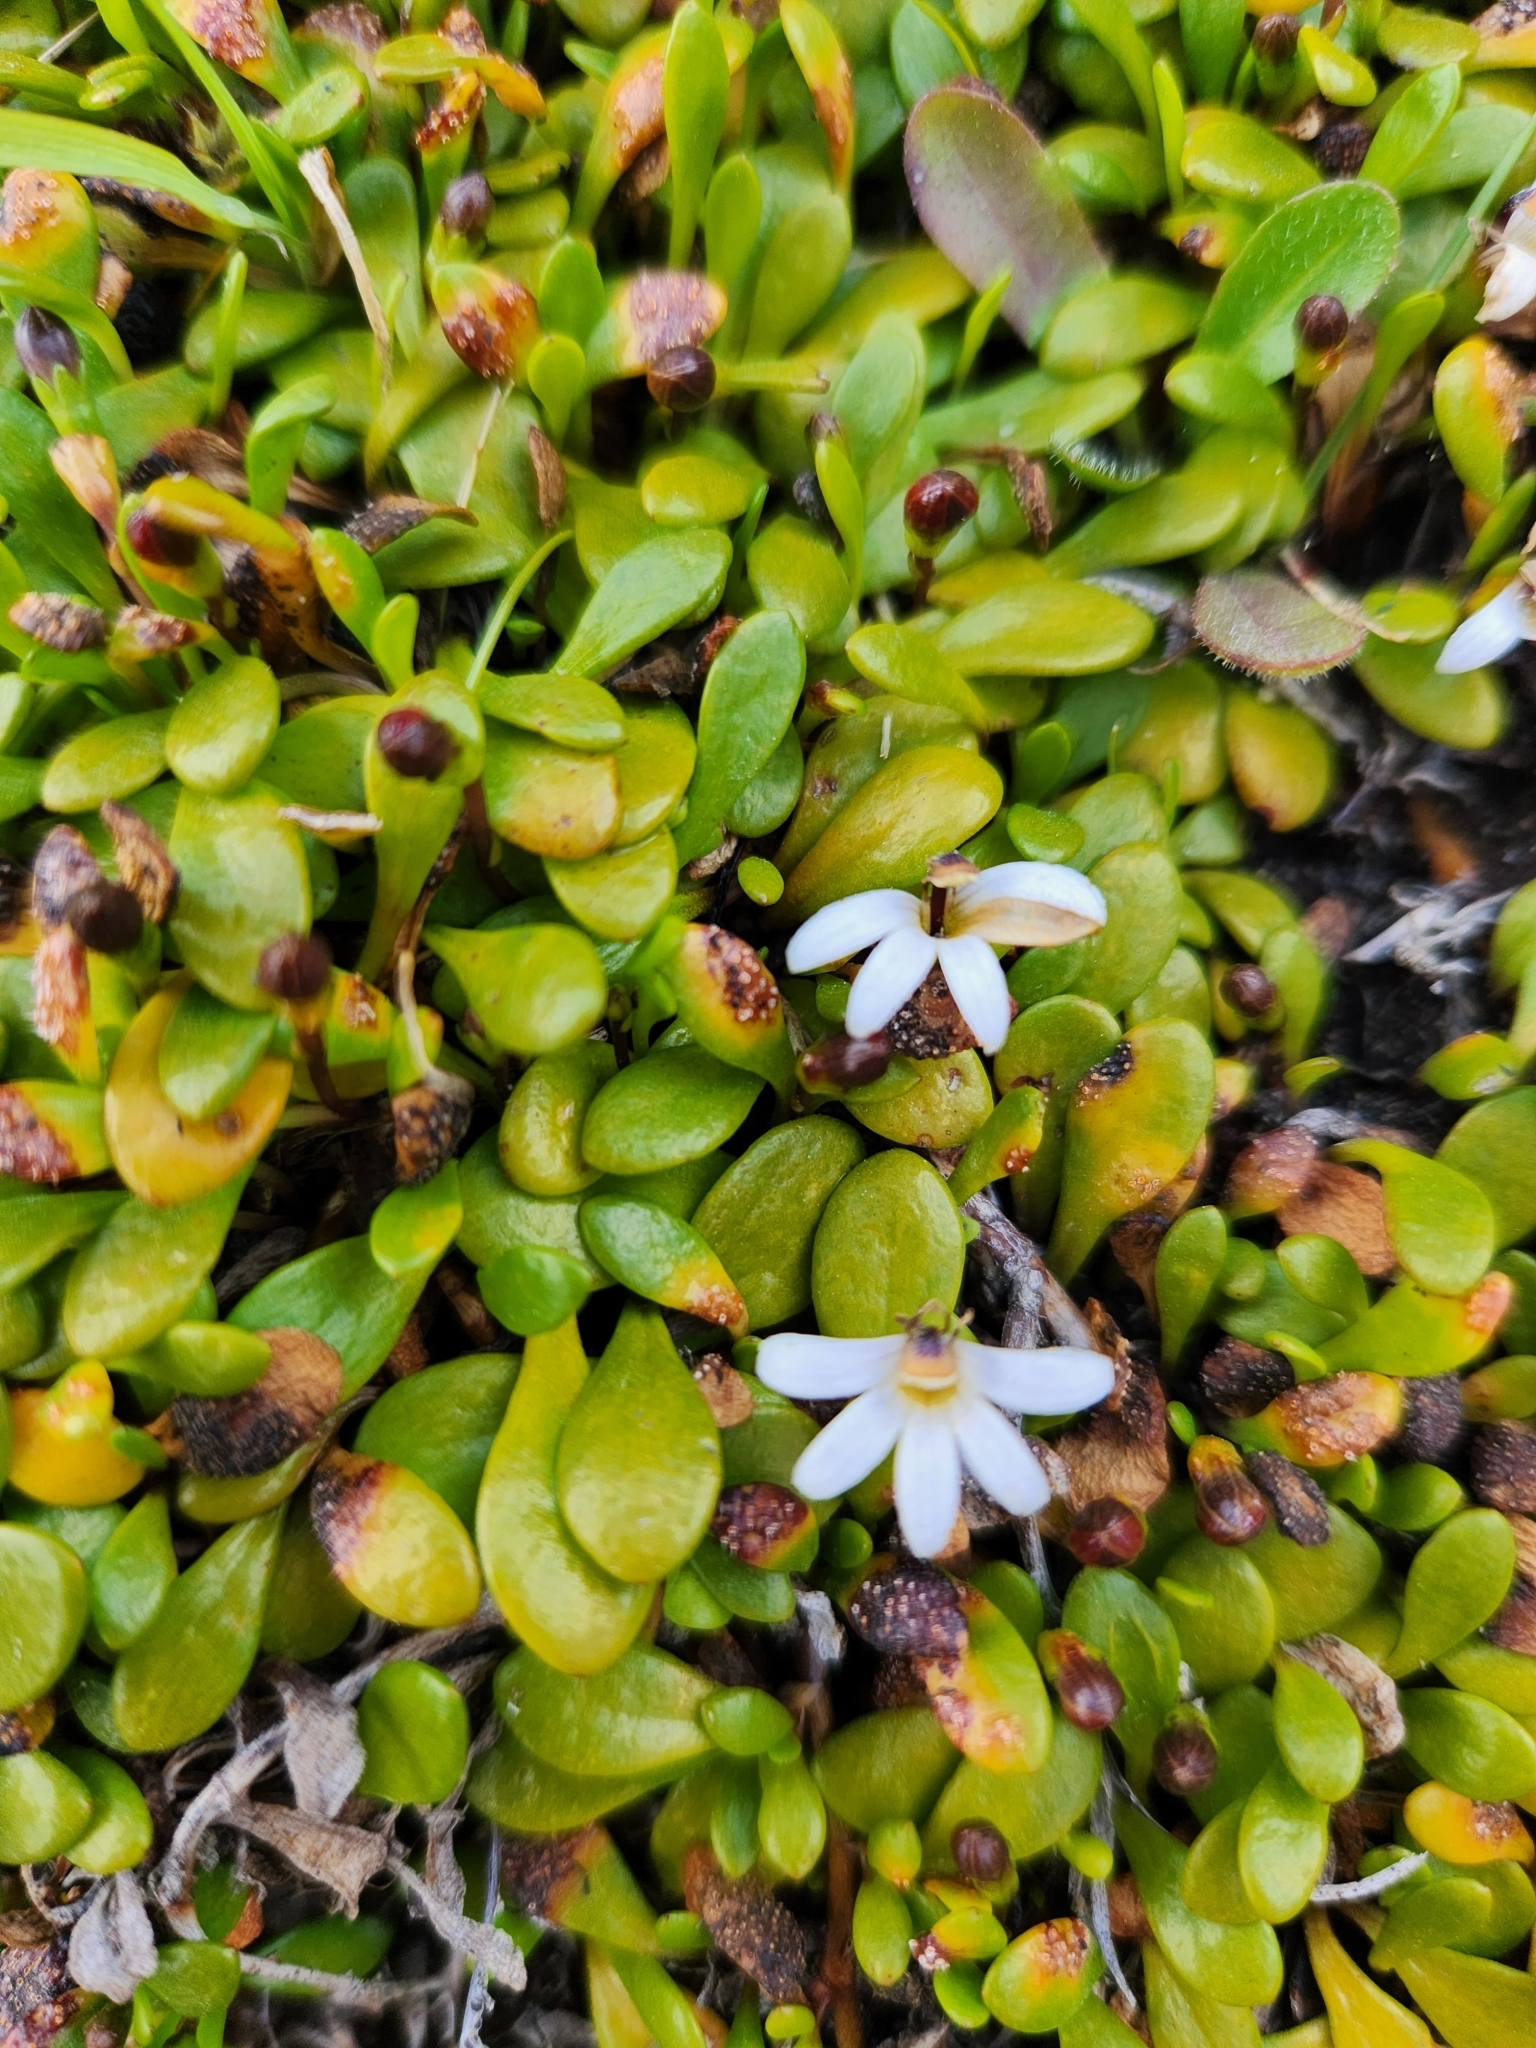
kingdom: Plantae
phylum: Tracheophyta
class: Magnoliopsida
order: Asterales
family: Goodeniaceae
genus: Goodenia
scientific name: Goodenia radicans
